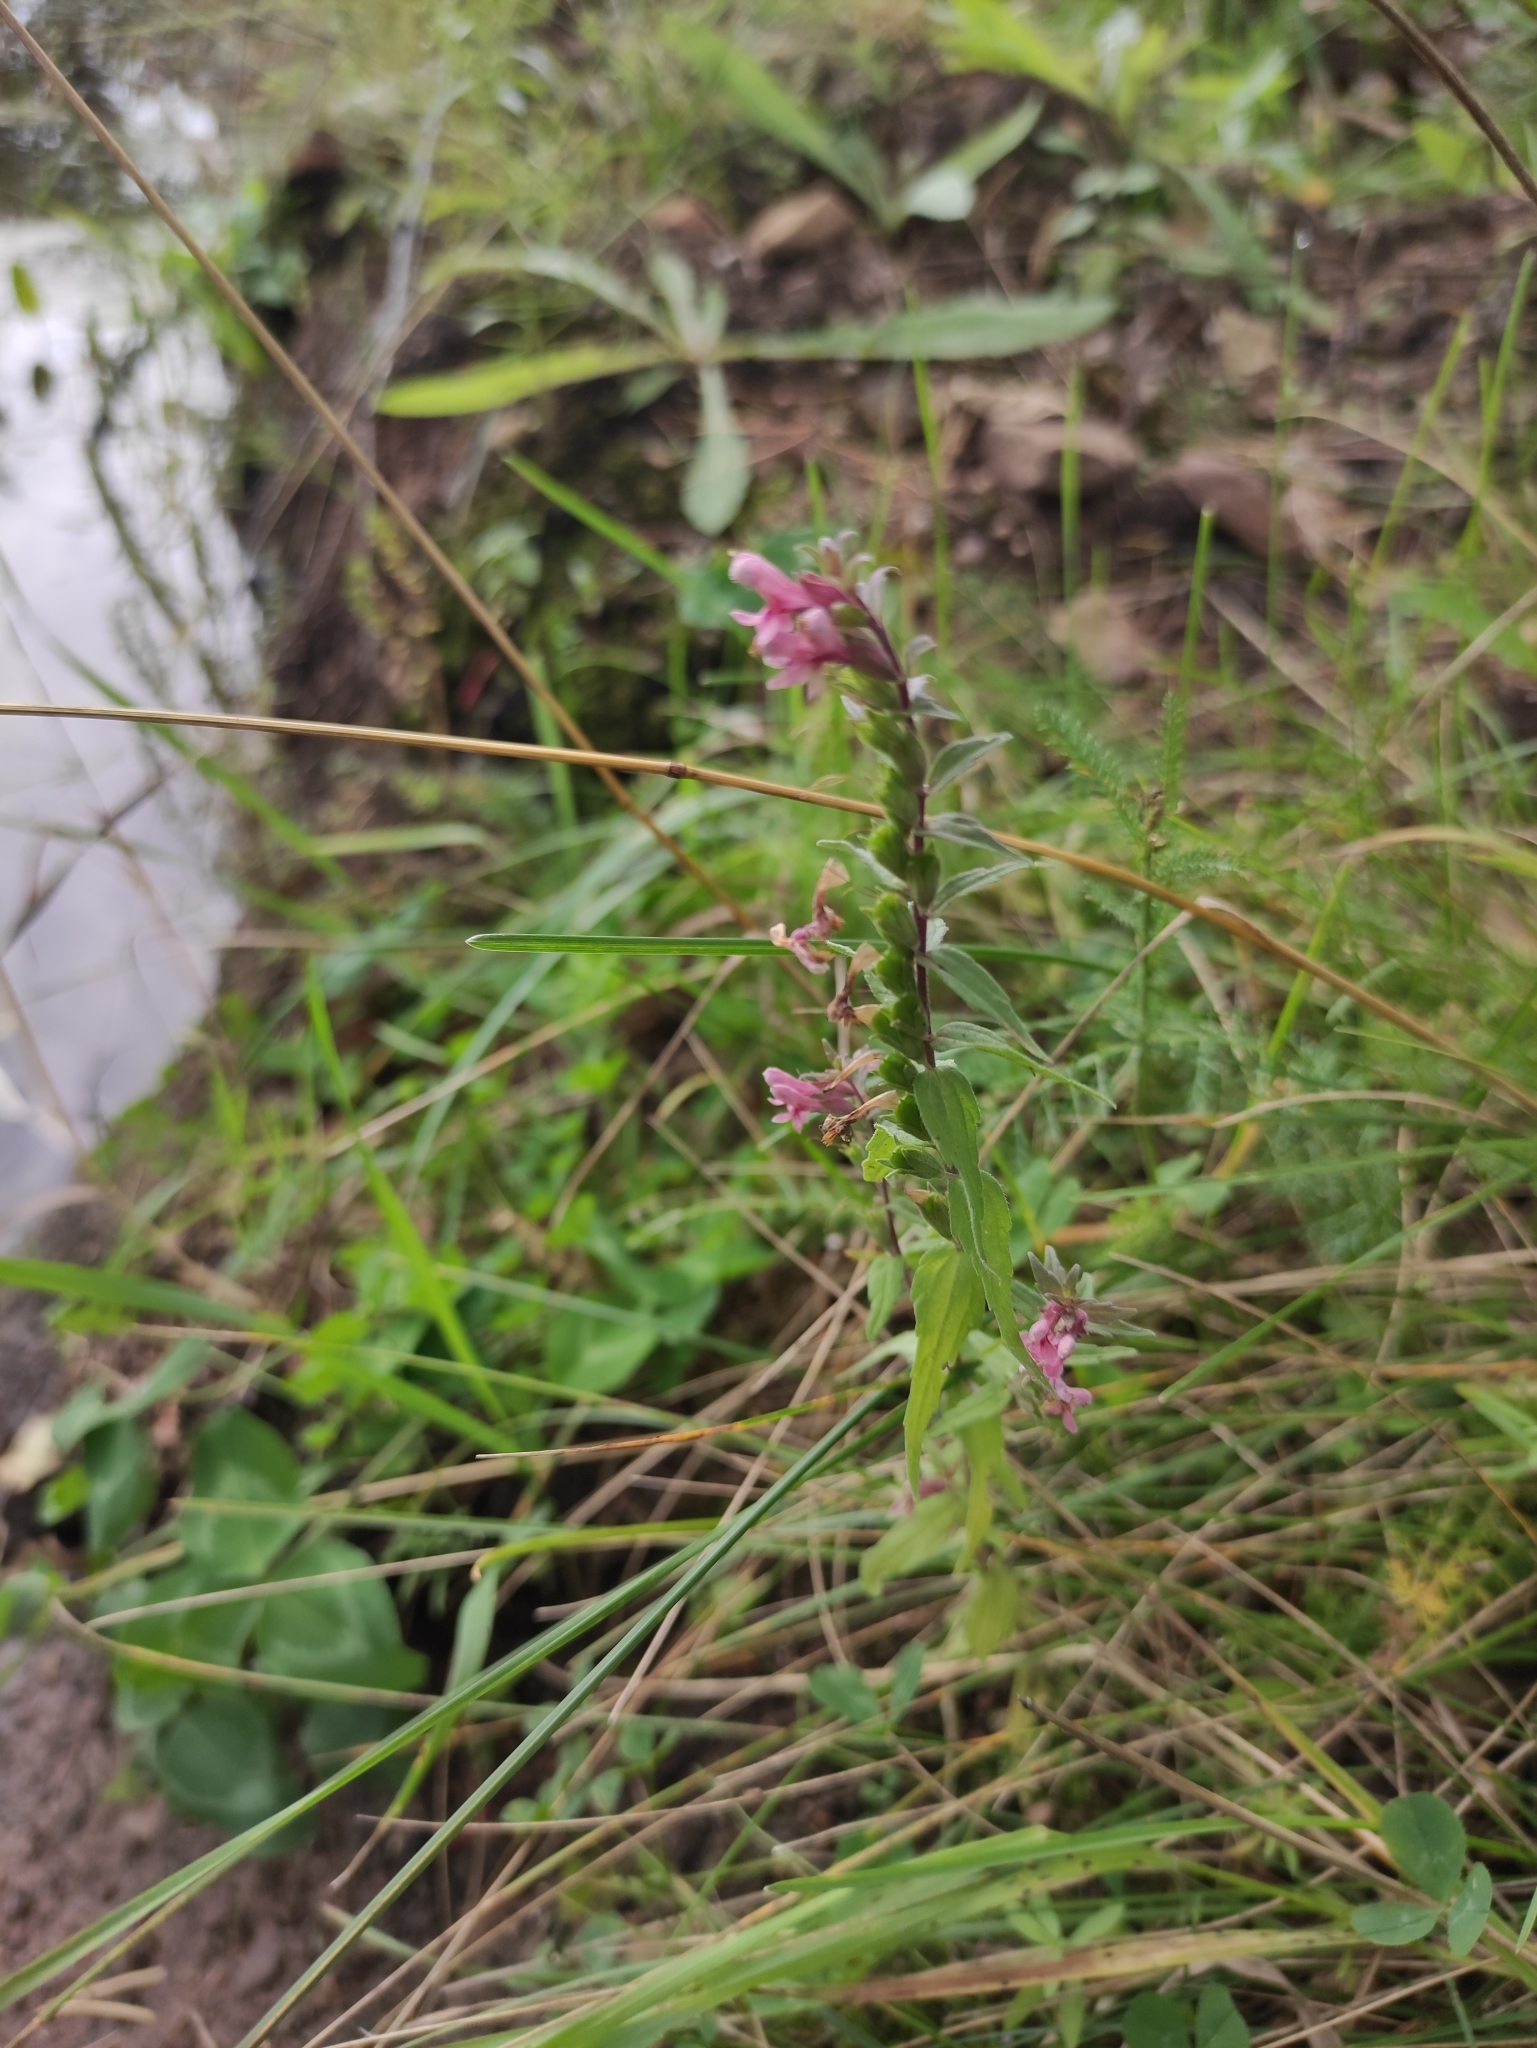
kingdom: Plantae
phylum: Tracheophyta
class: Magnoliopsida
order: Lamiales
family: Orobanchaceae
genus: Odontites
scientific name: Odontites vulgaris
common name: Broomrape
